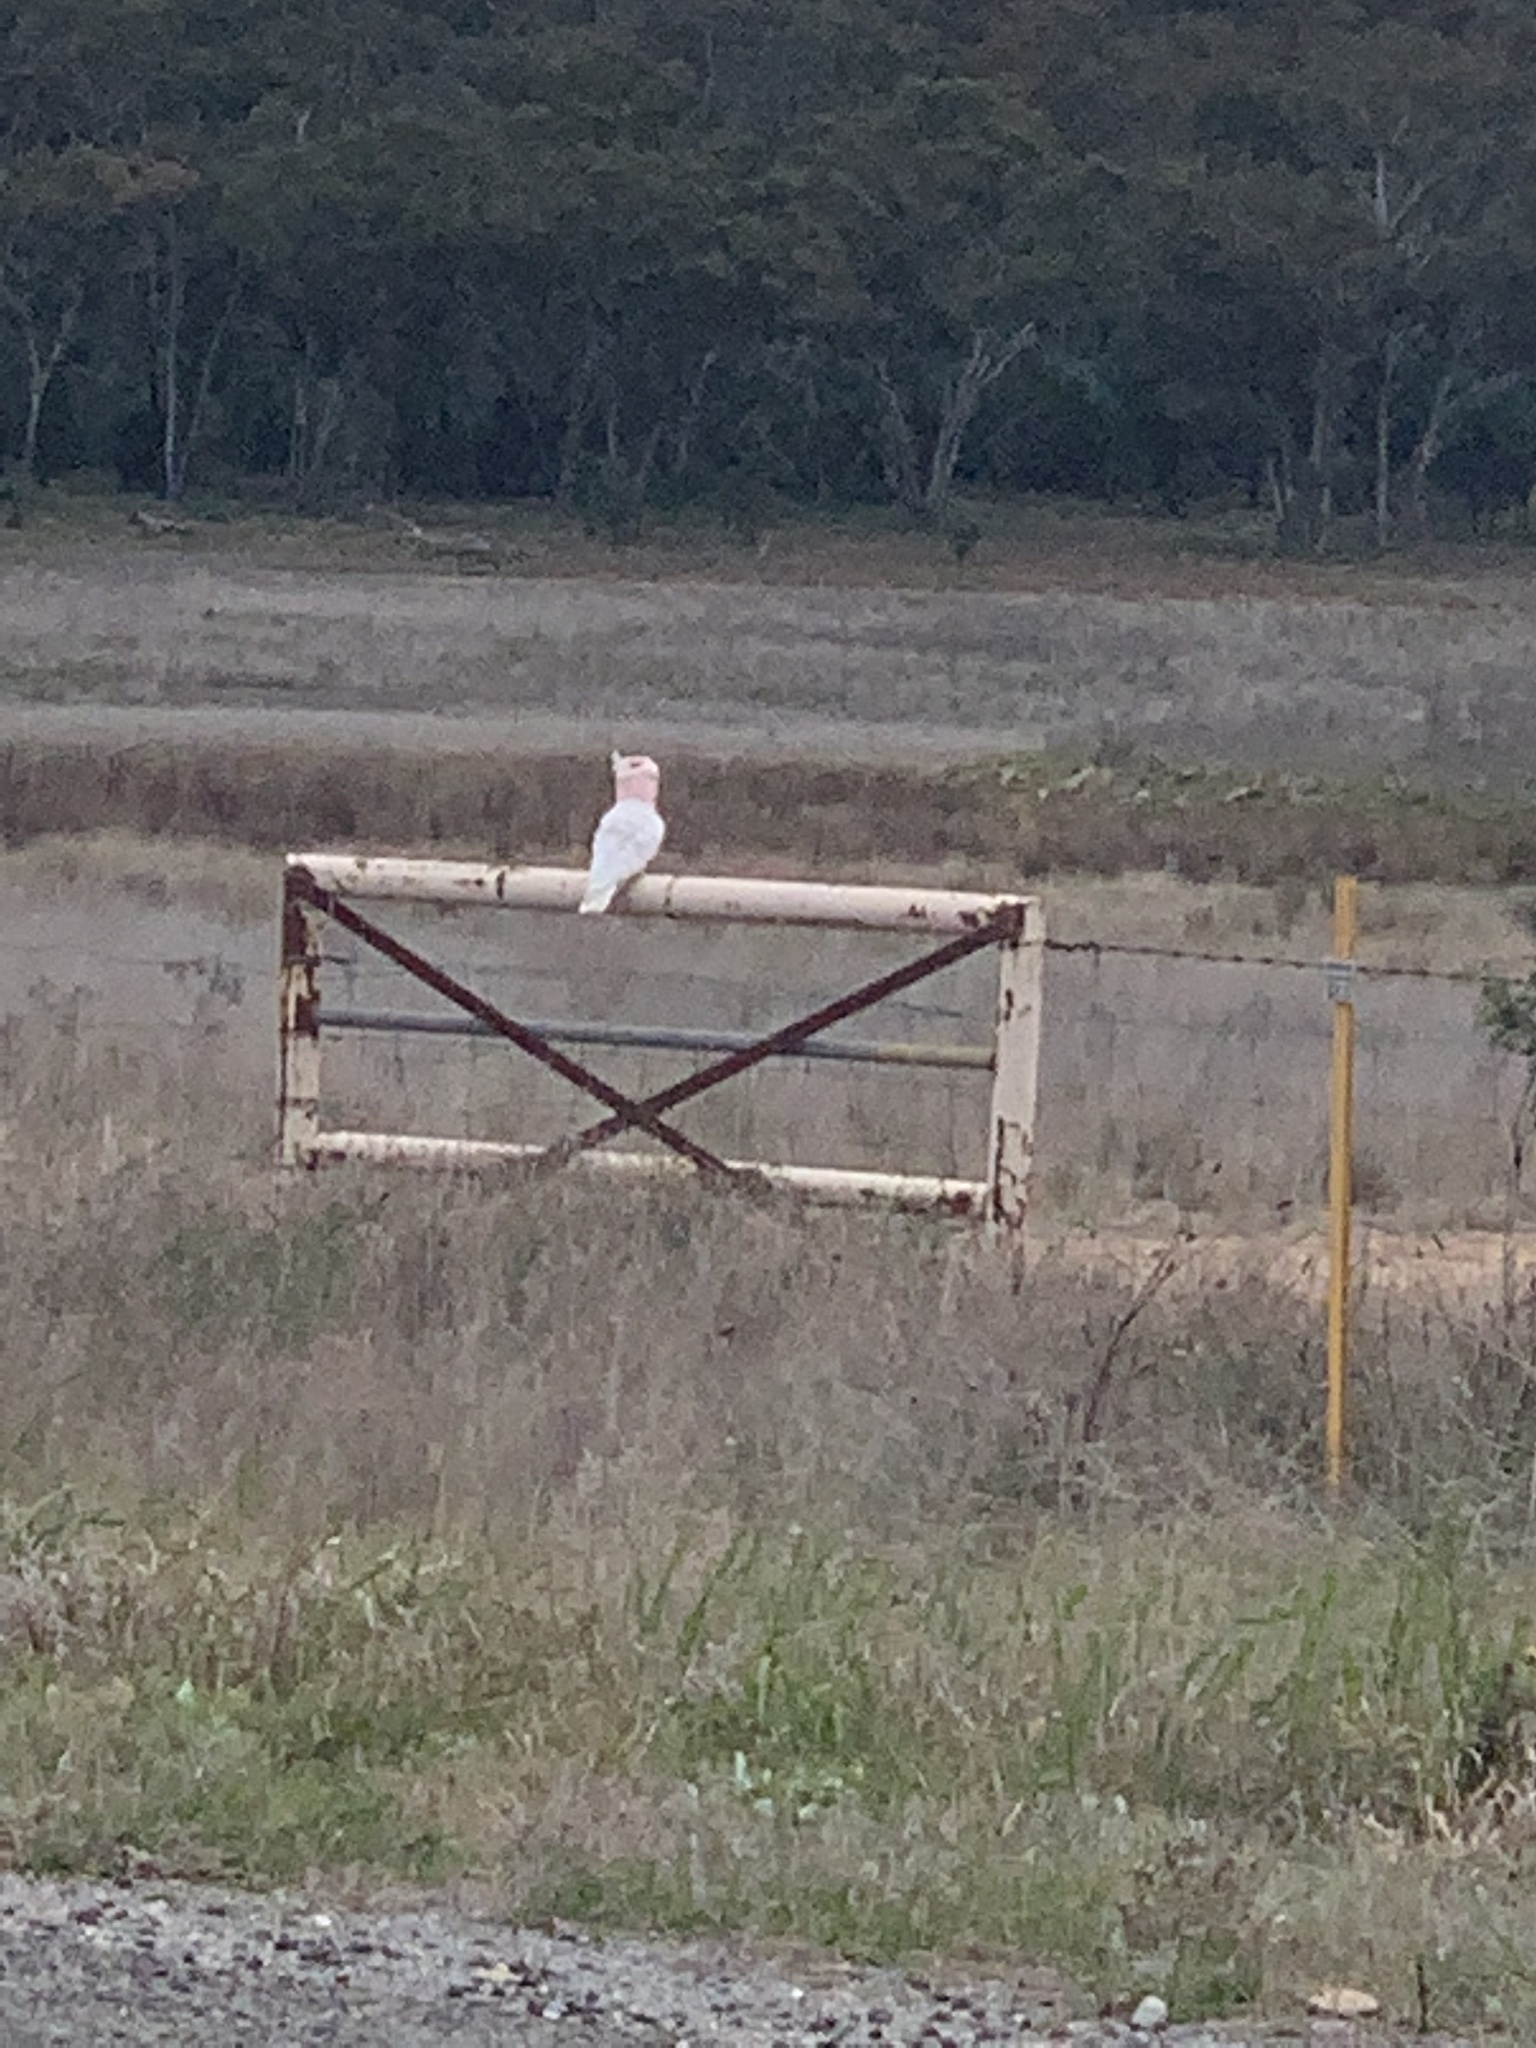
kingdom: Animalia
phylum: Chordata
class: Aves
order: Psittaciformes
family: Psittacidae
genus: Cacatua
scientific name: Cacatua leadbeateri
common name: Major mitchell's cockatoo
